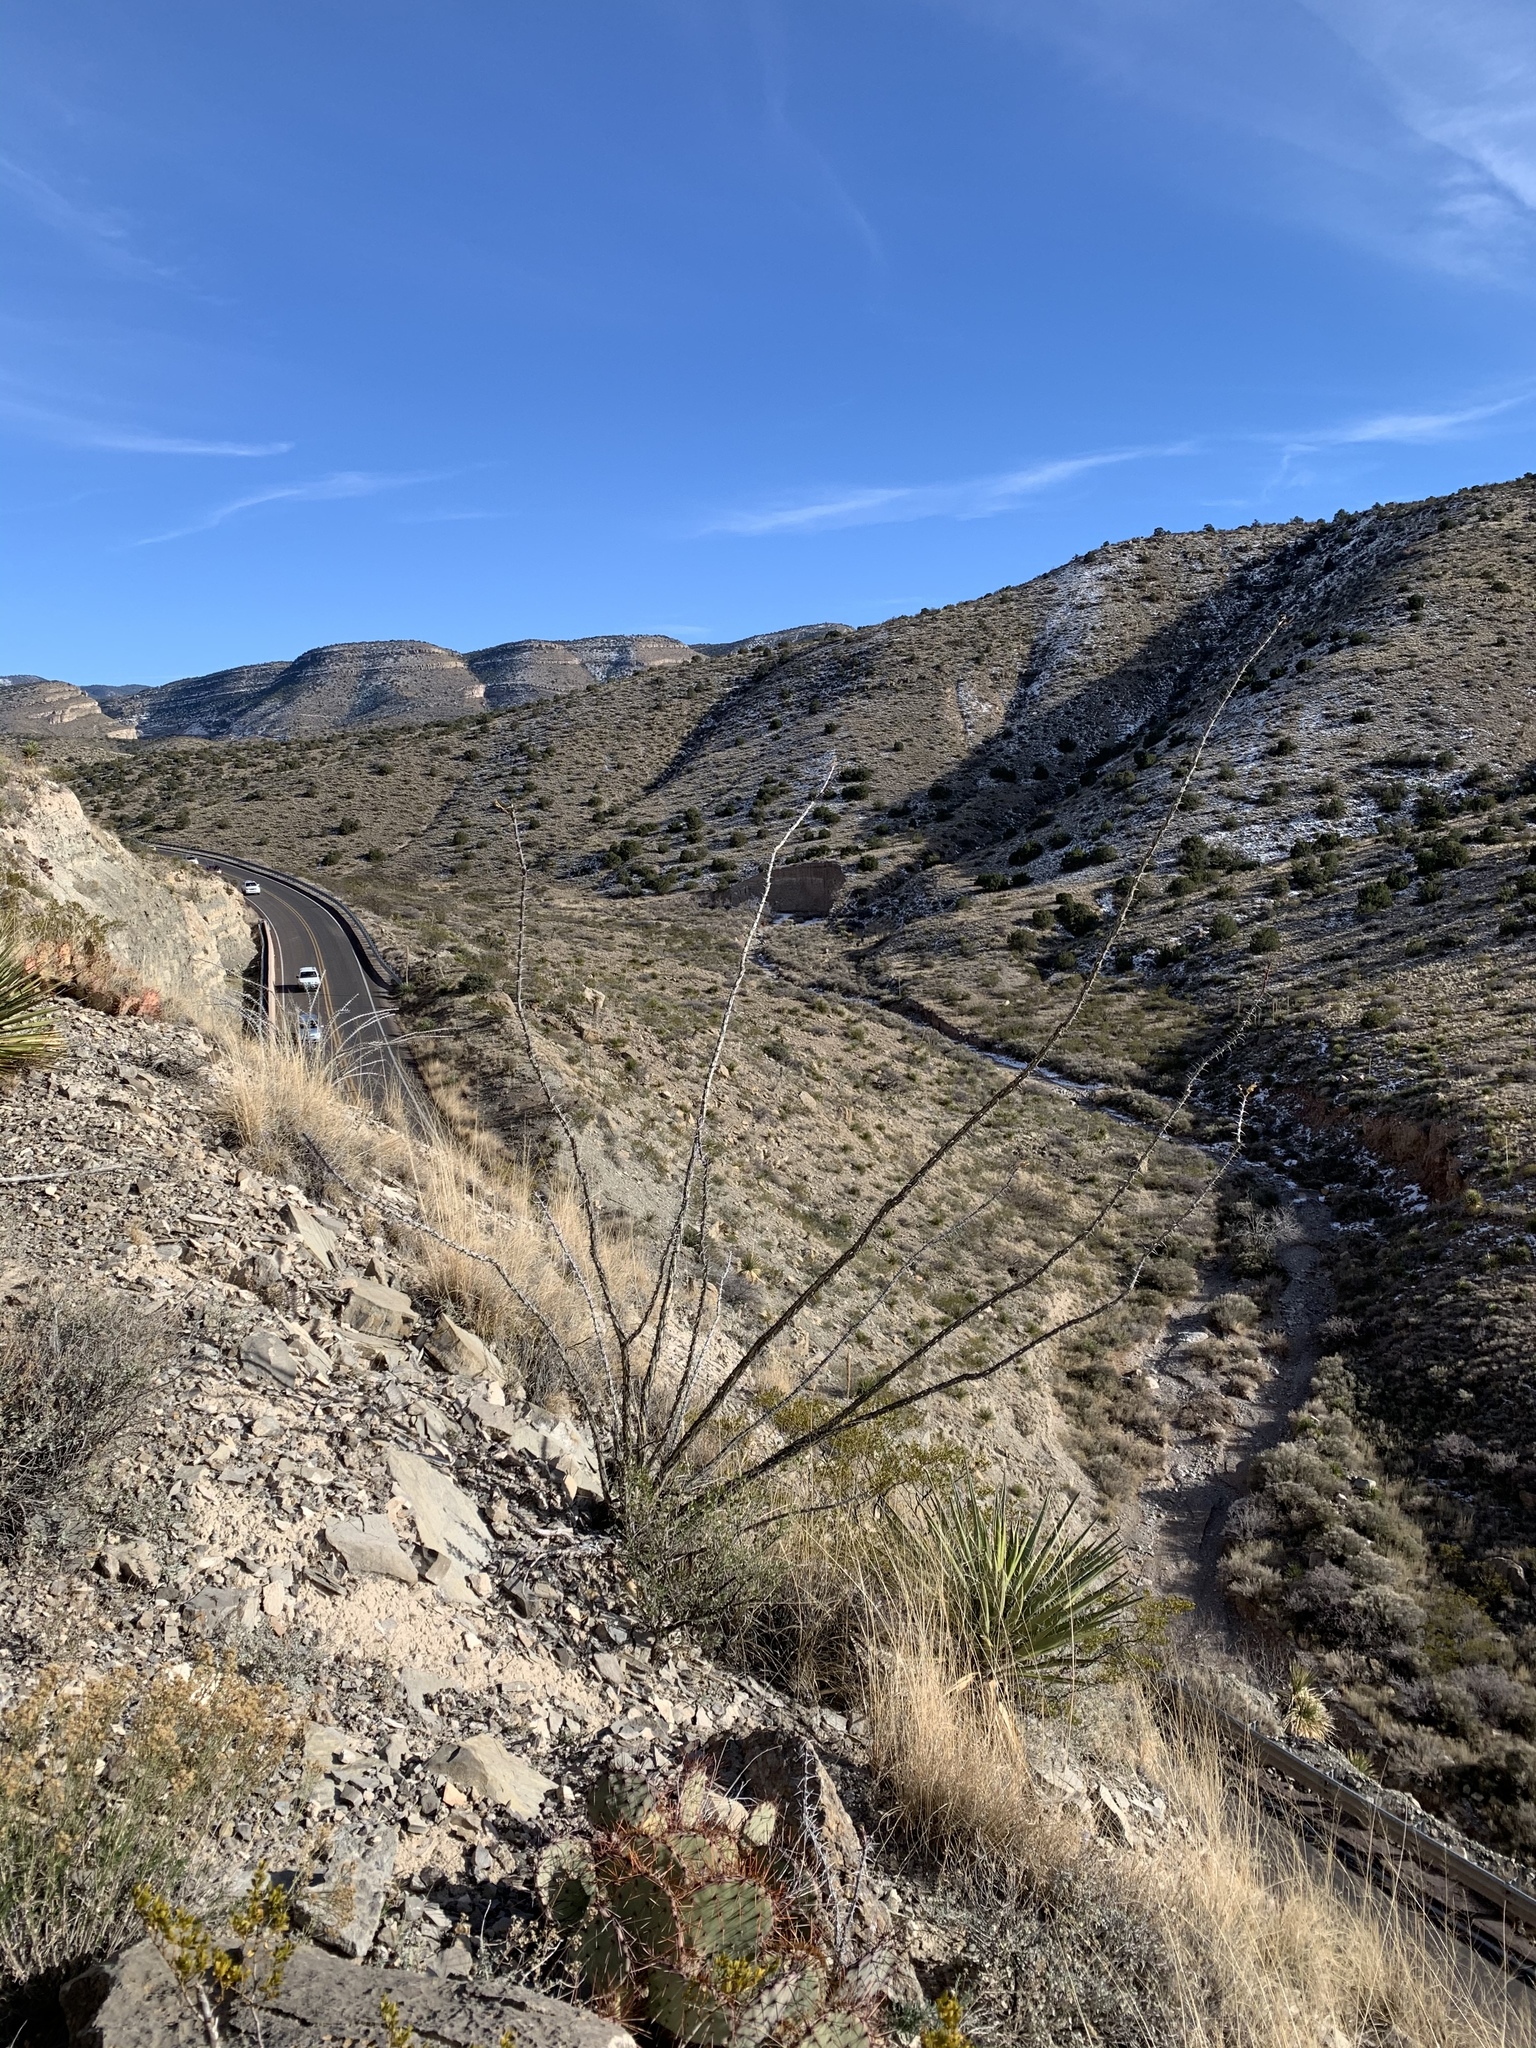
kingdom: Plantae
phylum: Tracheophyta
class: Magnoliopsida
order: Ericales
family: Fouquieriaceae
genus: Fouquieria
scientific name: Fouquieria splendens
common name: Vine-cactus
